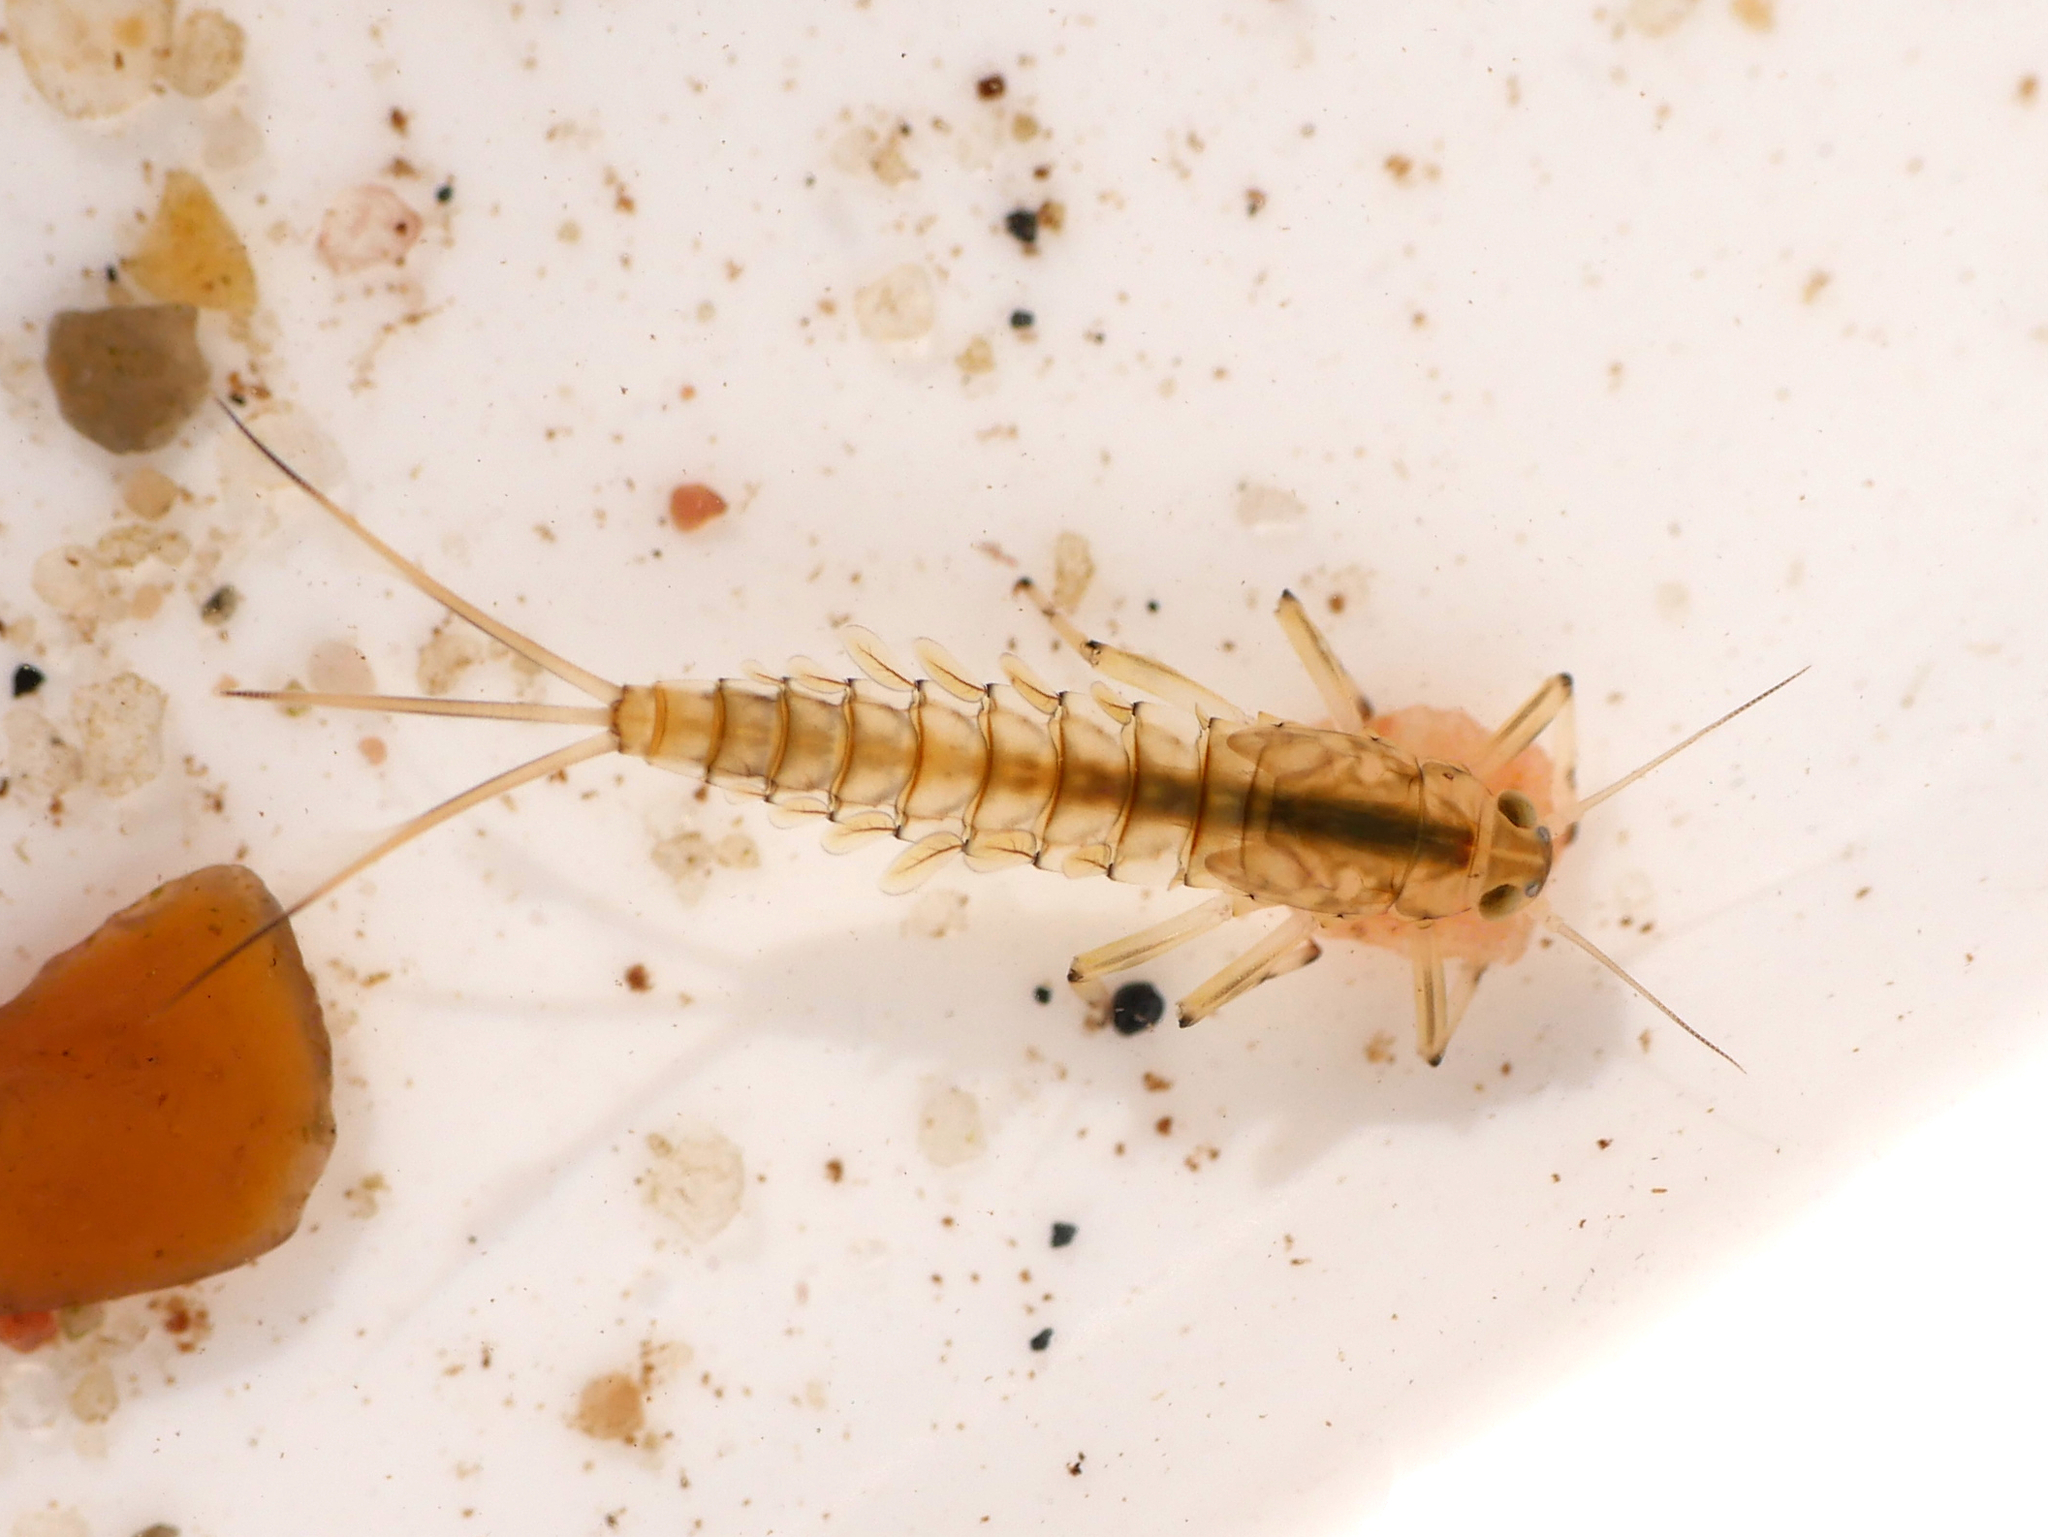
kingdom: Animalia
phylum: Arthropoda
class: Insecta
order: Ephemeroptera
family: Baetidae
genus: Baetis
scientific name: Baetis rhodani
